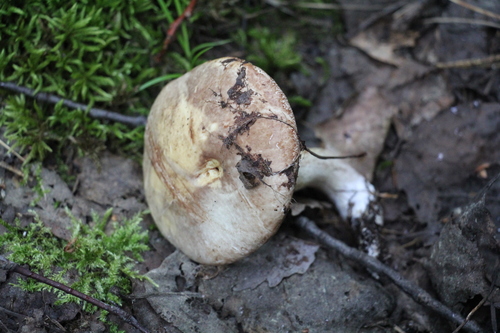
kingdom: Fungi
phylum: Basidiomycota
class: Agaricomycetes
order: Boletales
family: Suillaceae
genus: Suillus
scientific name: Suillus placidus
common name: Slippery white bolete
